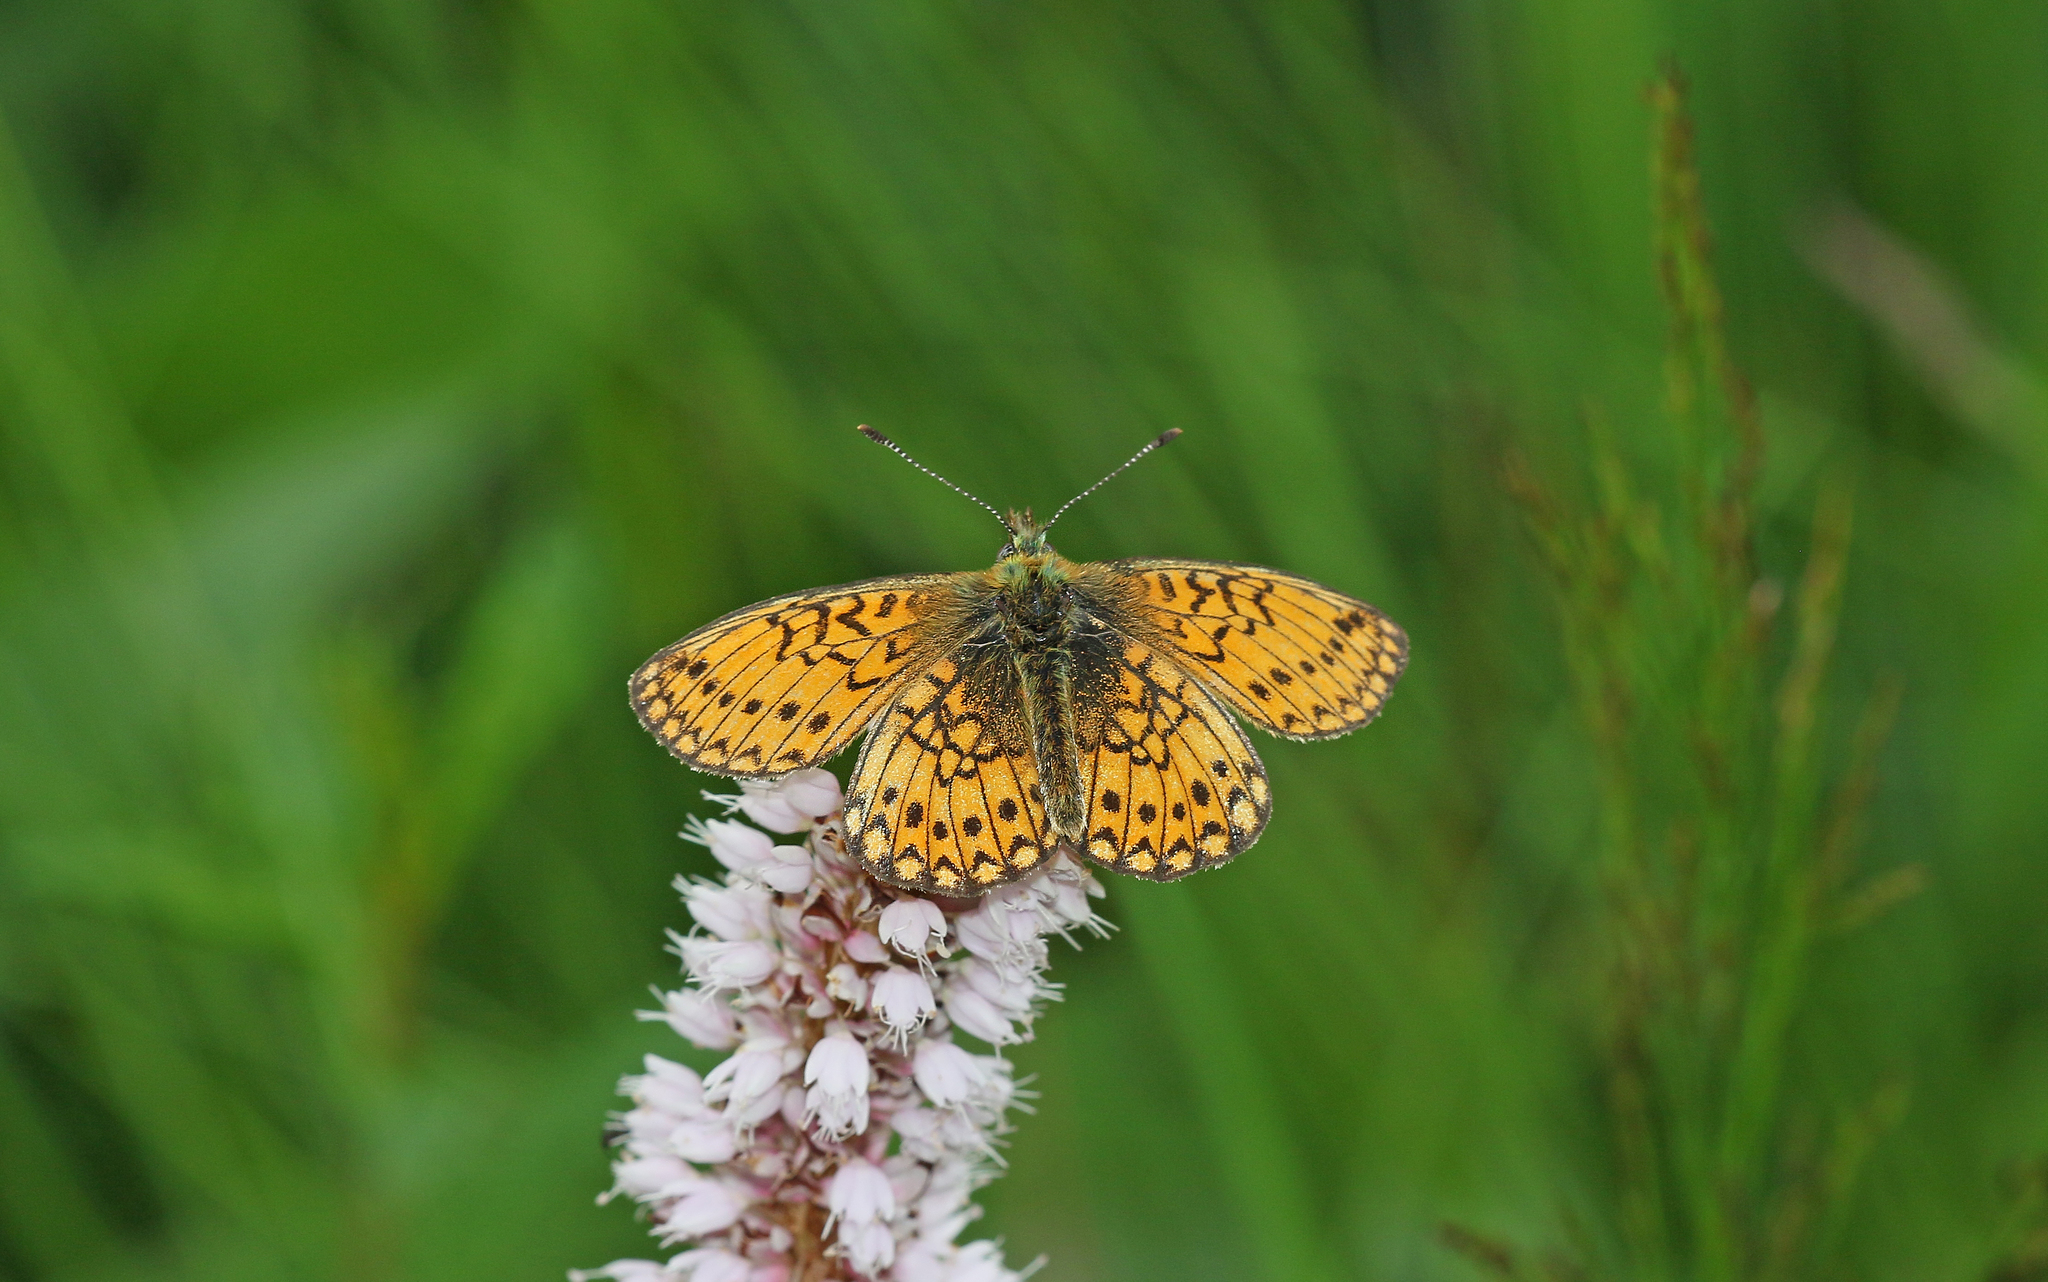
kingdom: Animalia
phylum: Arthropoda
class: Insecta
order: Lepidoptera
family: Nymphalidae
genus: Boloria
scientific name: Boloria eunomia
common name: Bog fritillary
